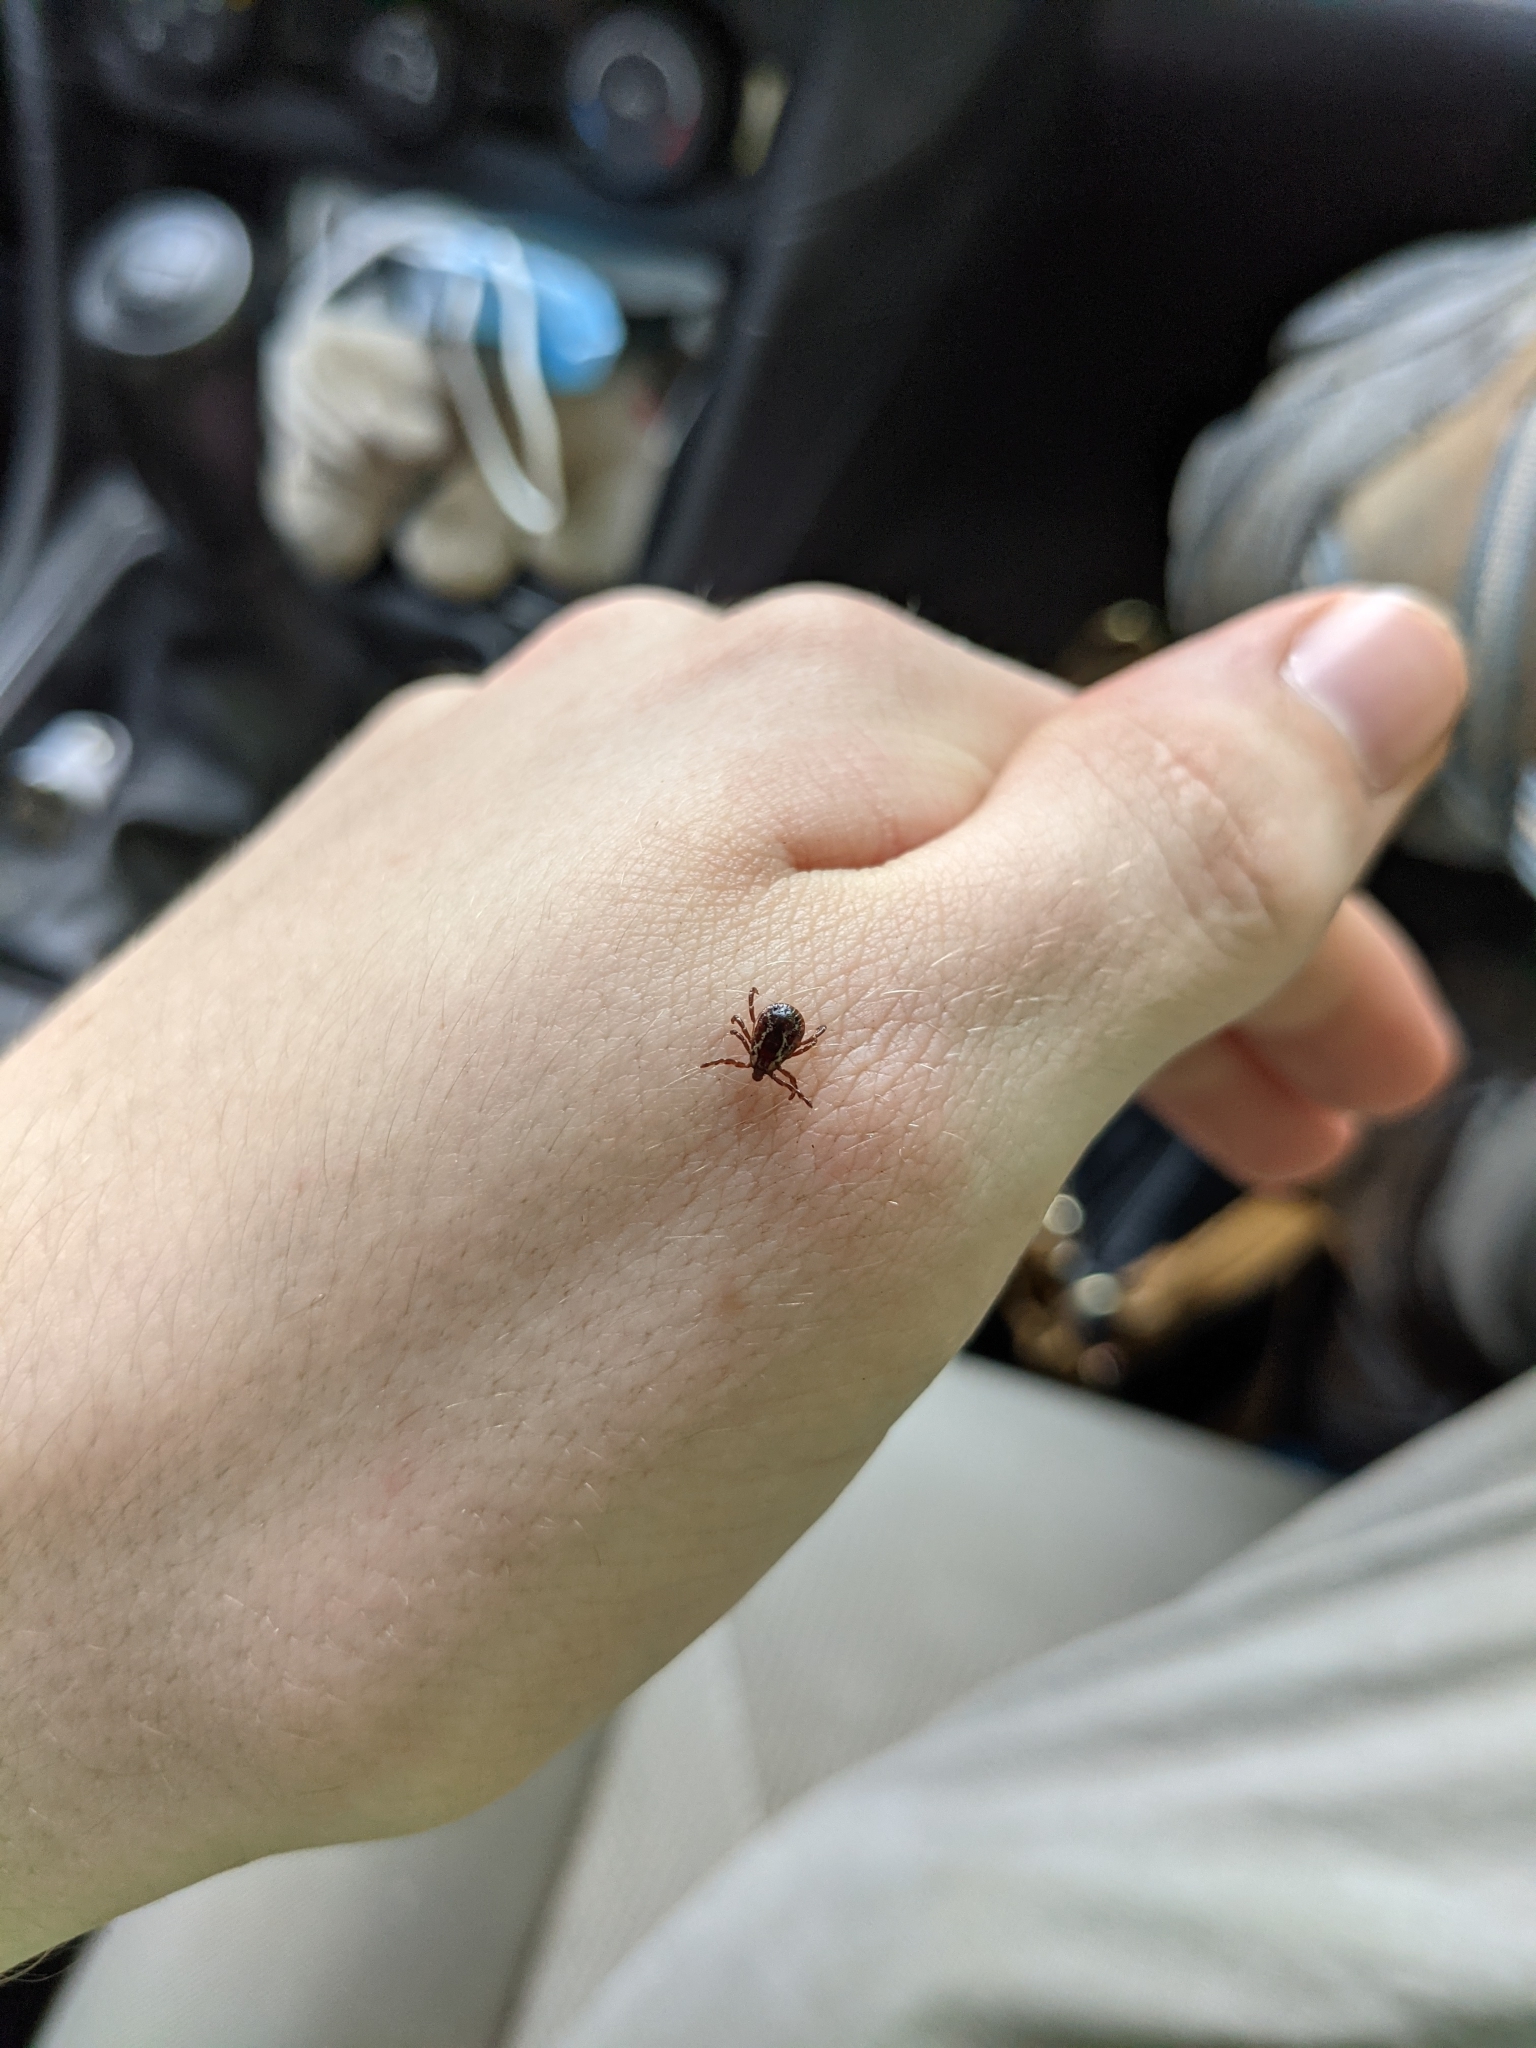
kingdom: Animalia
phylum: Arthropoda
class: Arachnida
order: Ixodida
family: Ixodidae
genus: Dermacentor
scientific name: Dermacentor variabilis
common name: American dog tick
